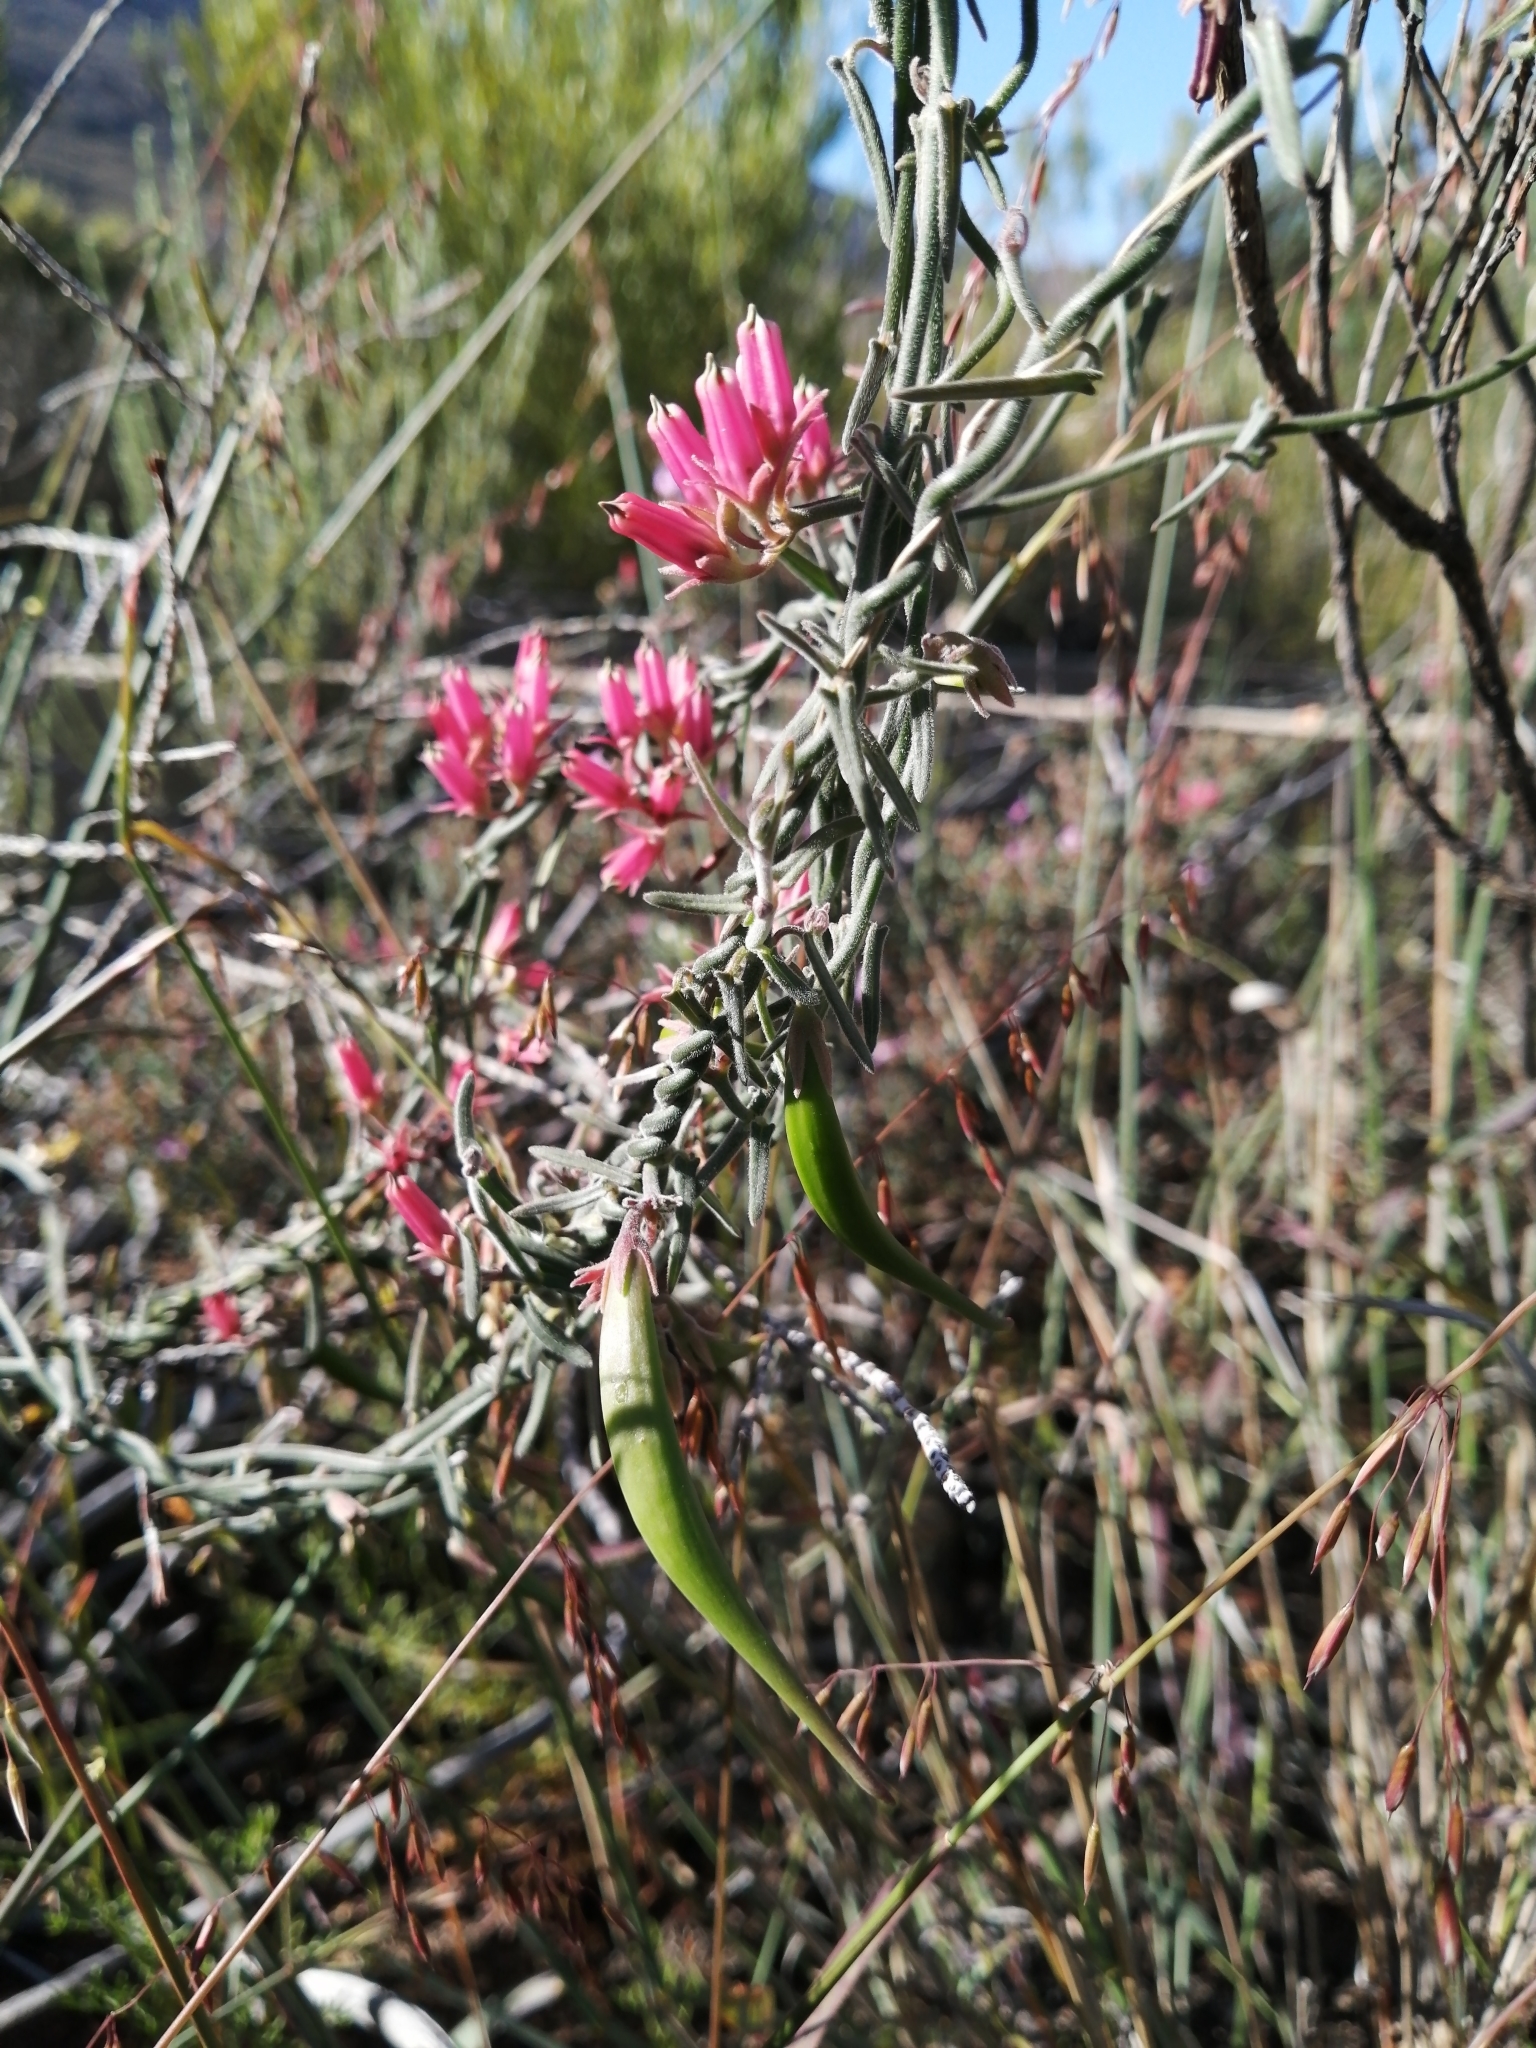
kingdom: Plantae
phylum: Tracheophyta
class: Magnoliopsida
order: Gentianales
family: Apocynaceae
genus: Microloma
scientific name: Microloma sagittatum
